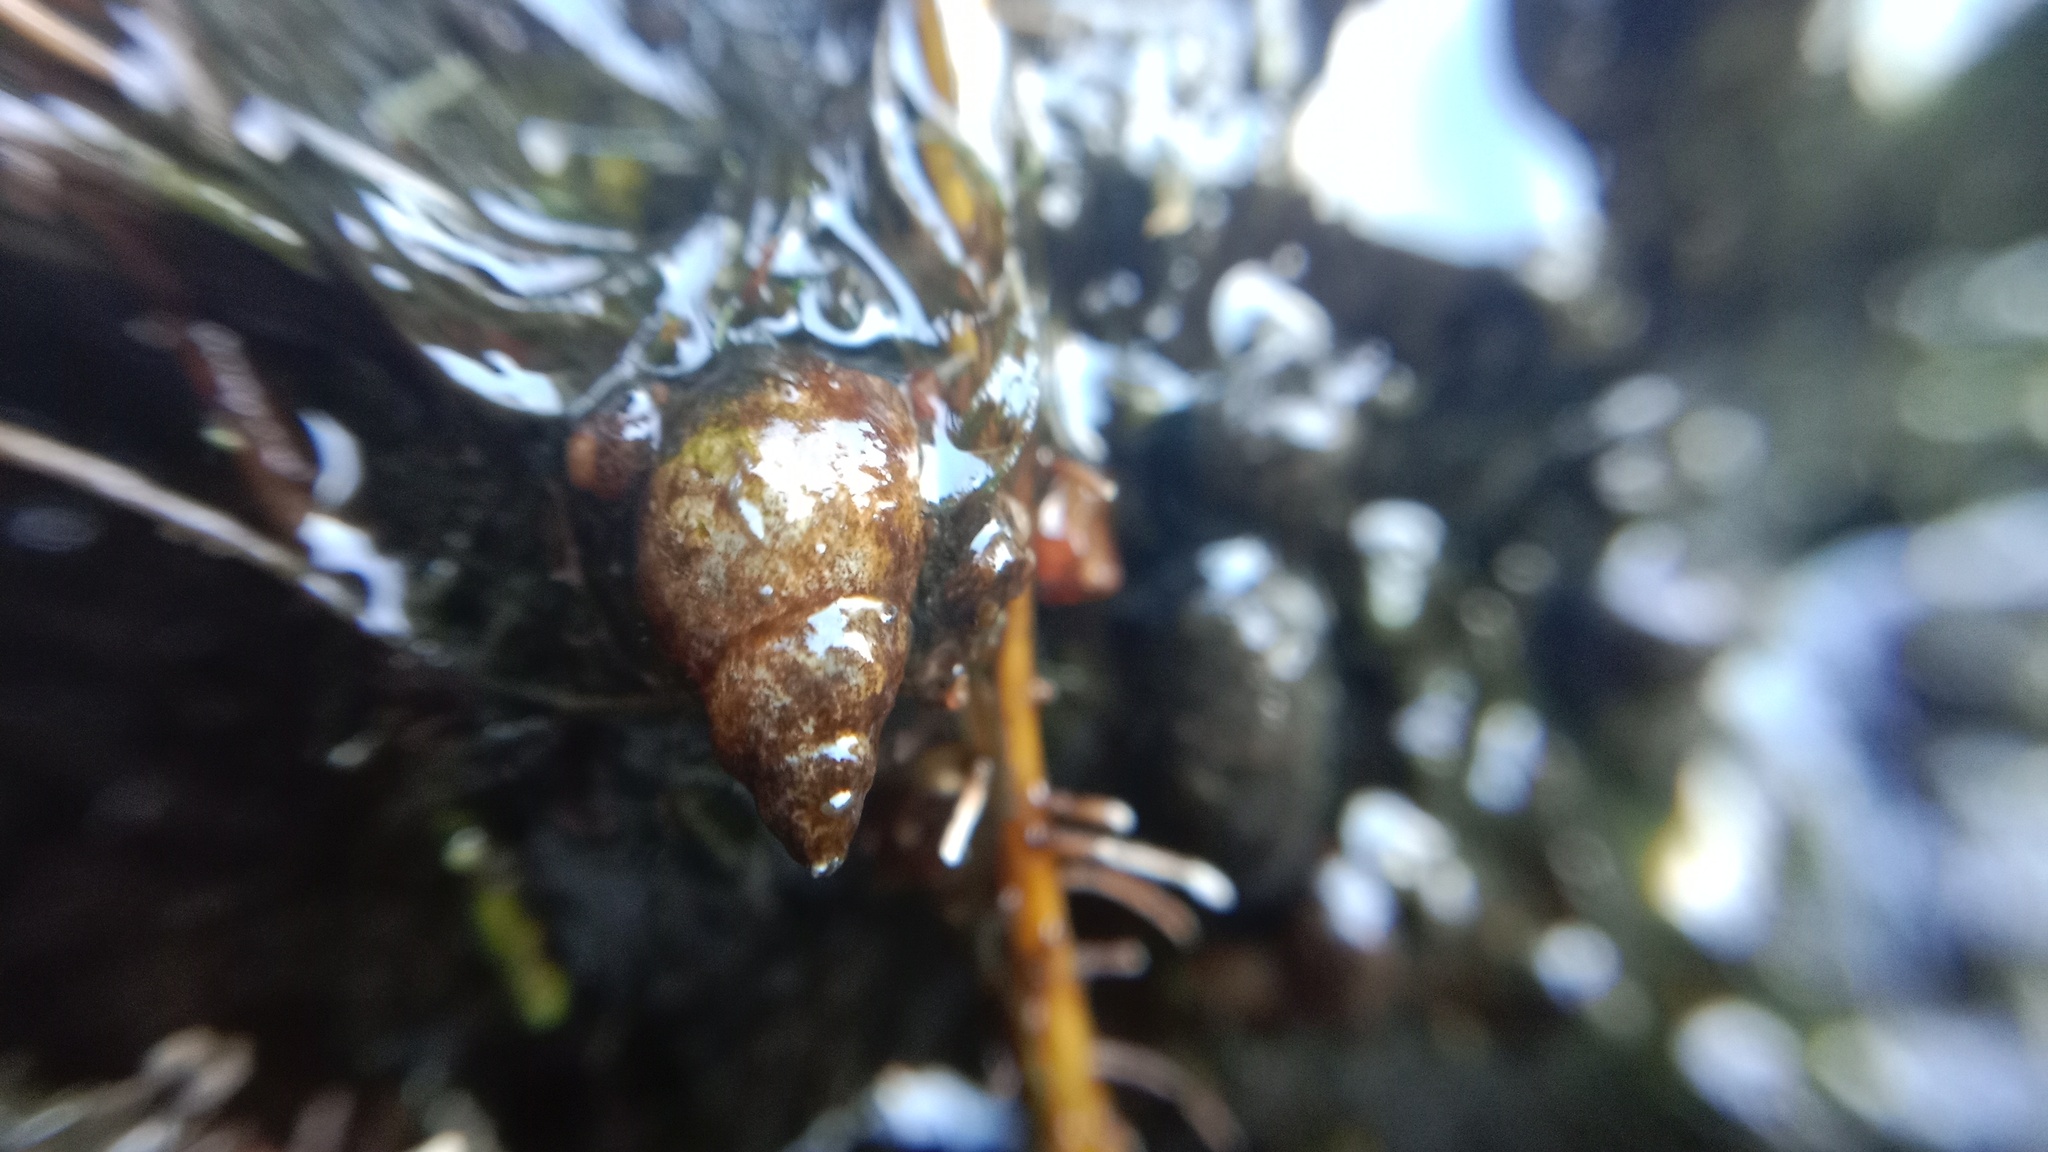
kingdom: Animalia
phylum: Mollusca
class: Gastropoda
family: Lymnaeidae
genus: Galba
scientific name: Galba truncatula
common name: Dwarf pond snail
